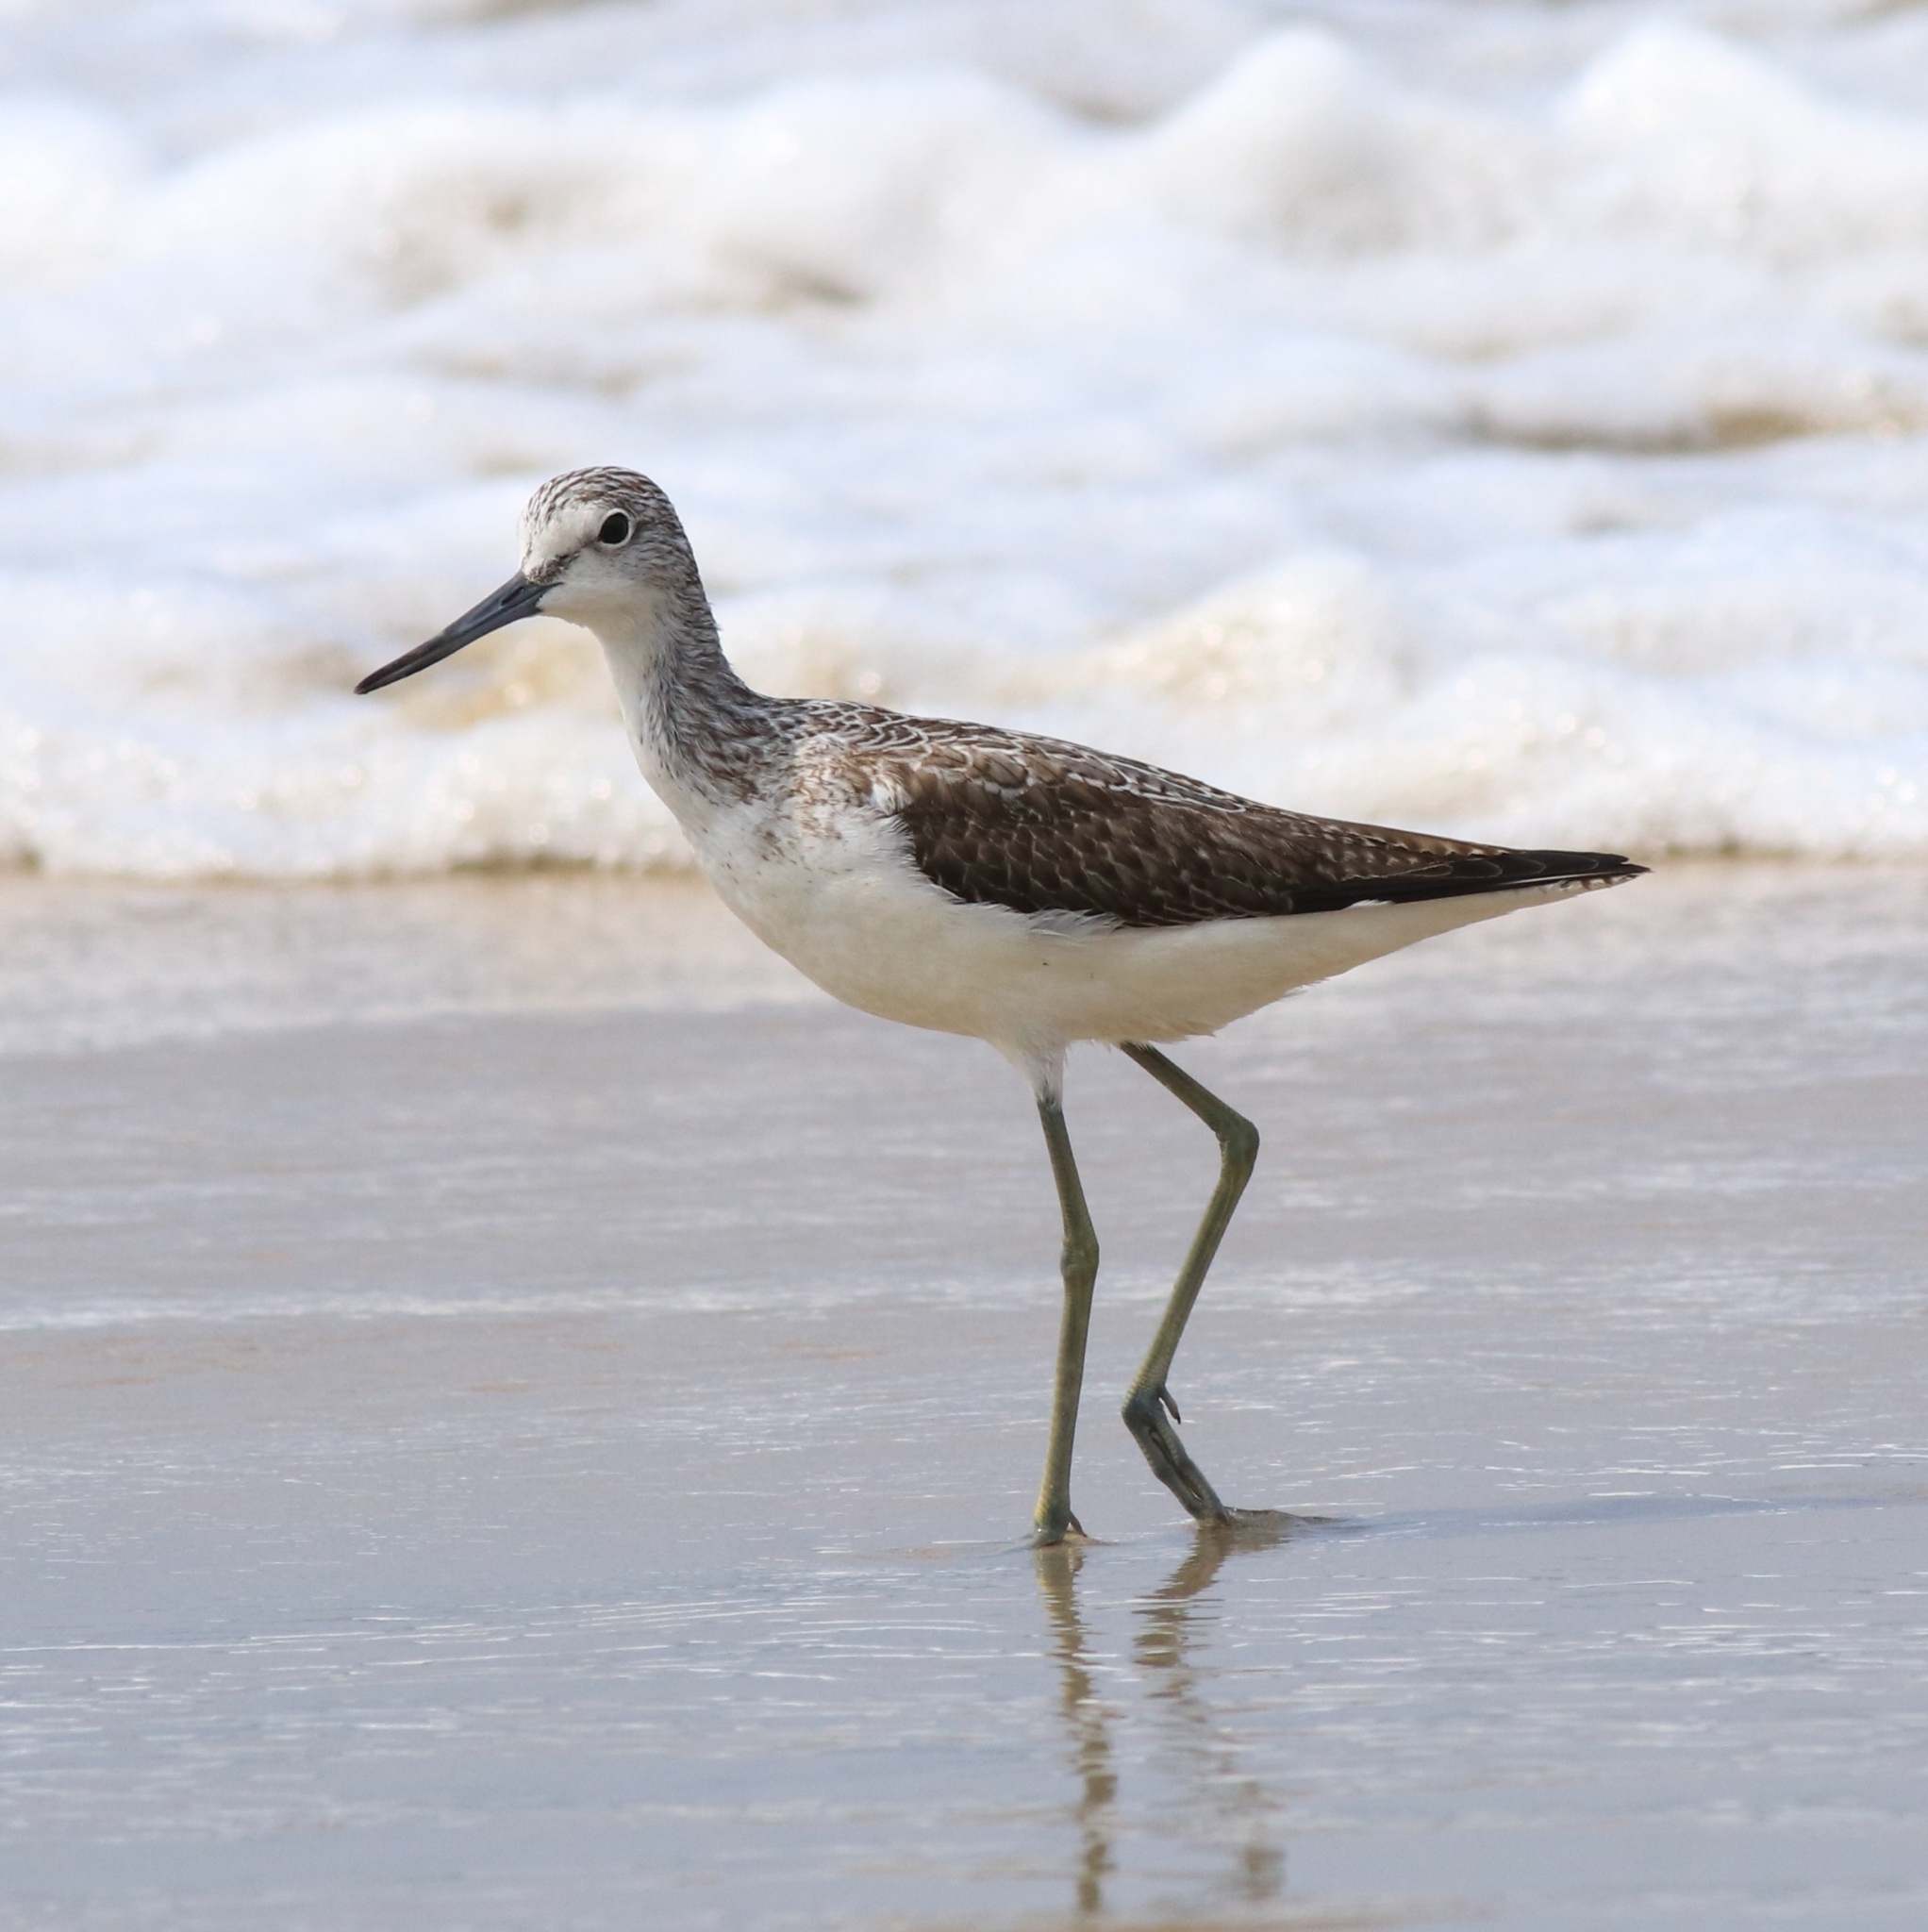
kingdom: Animalia
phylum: Chordata
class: Aves
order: Charadriiformes
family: Scolopacidae
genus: Tringa
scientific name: Tringa nebularia
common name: Common greenshank
